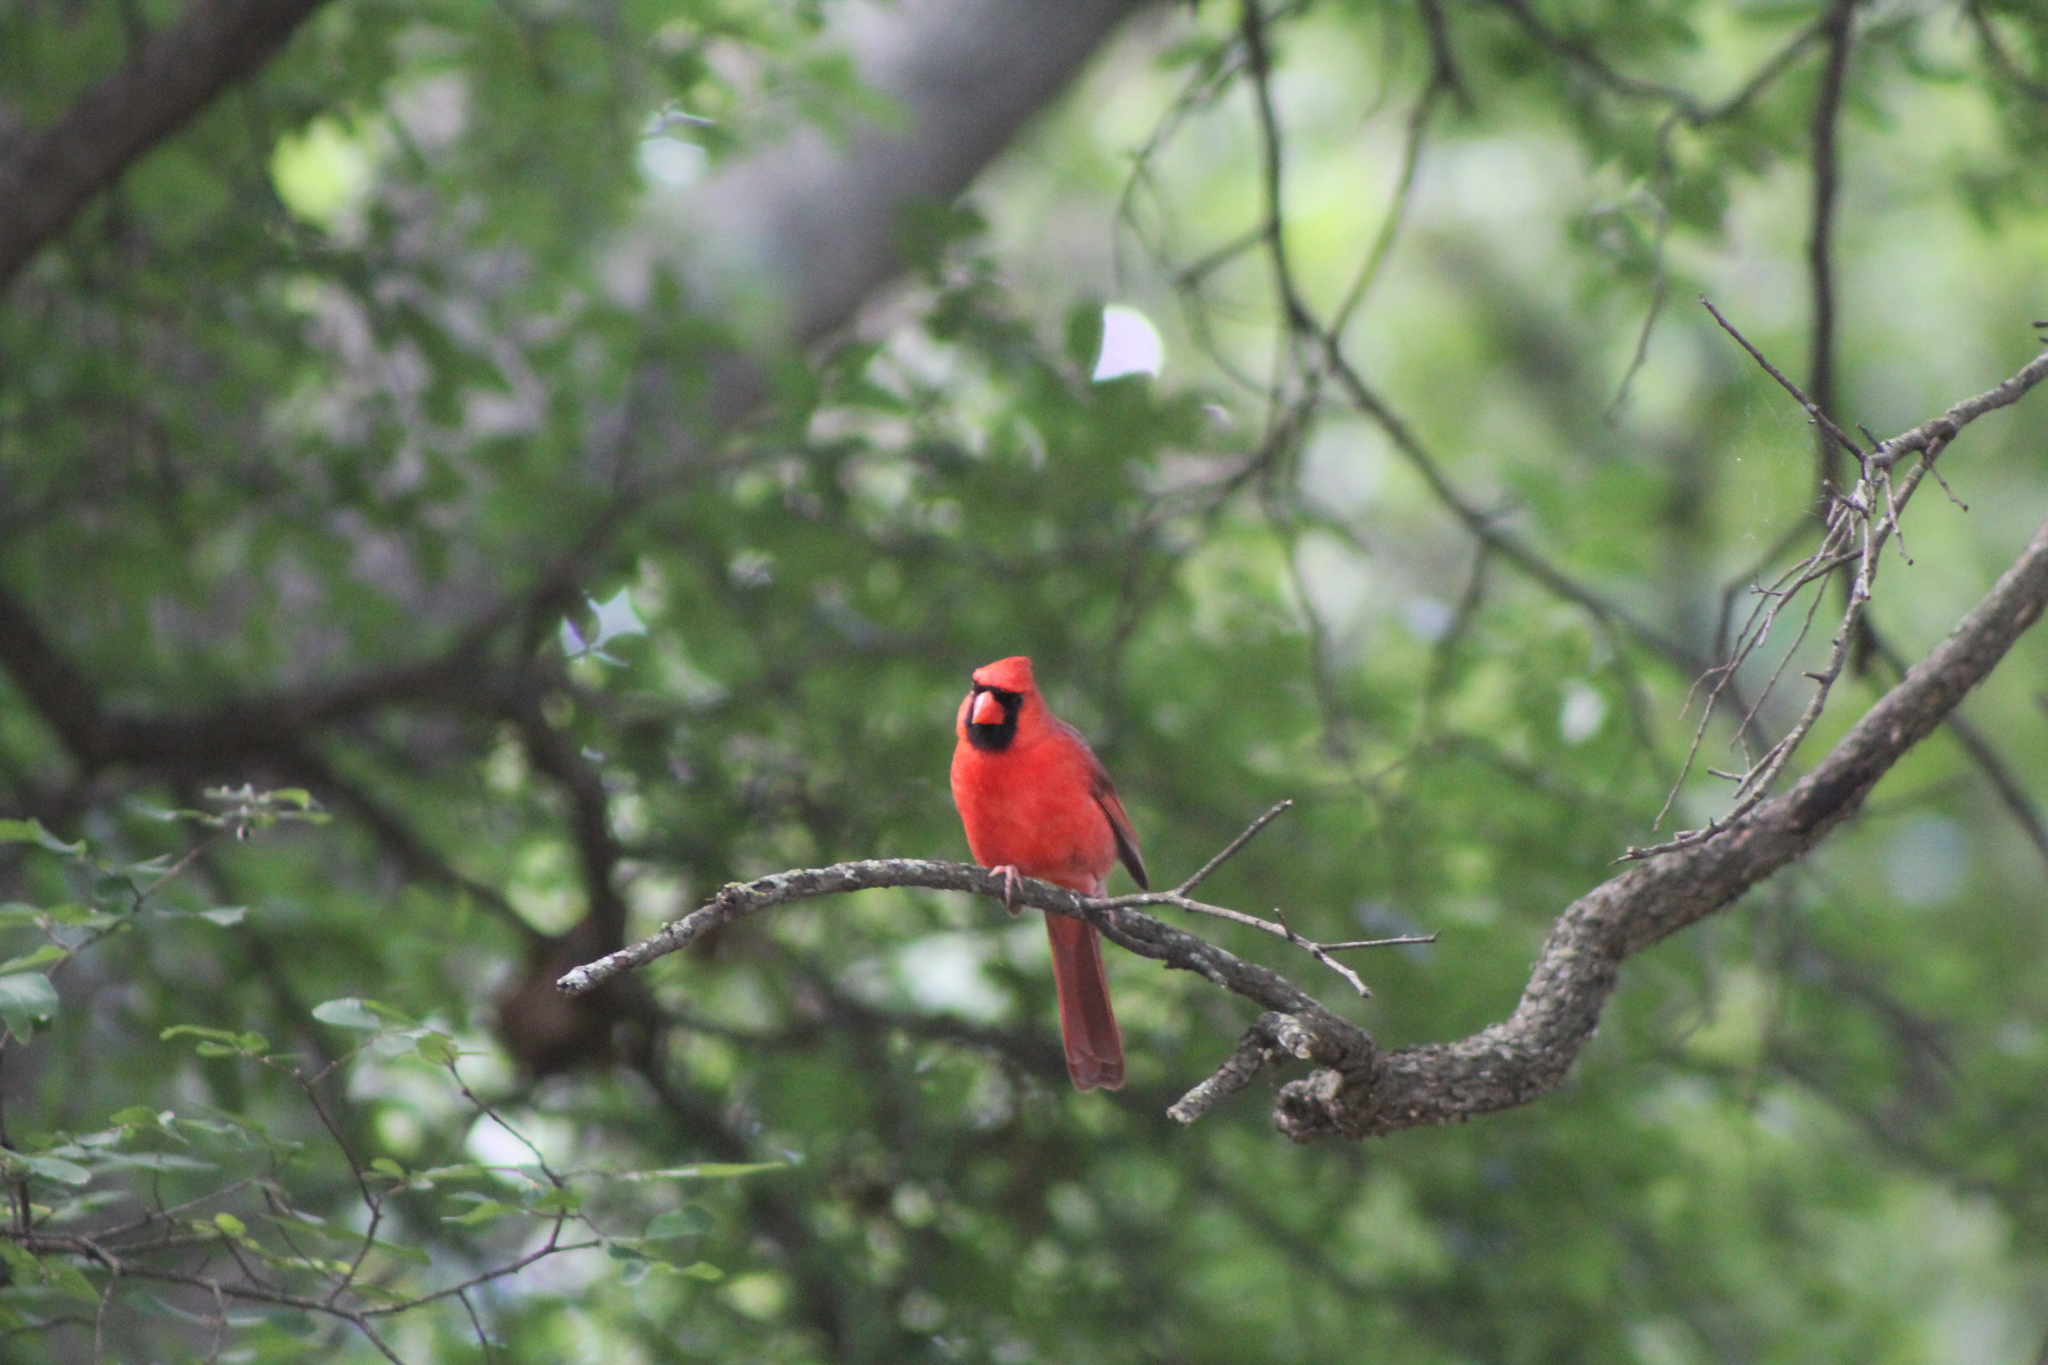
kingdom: Animalia
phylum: Chordata
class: Aves
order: Passeriformes
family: Cardinalidae
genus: Cardinalis
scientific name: Cardinalis cardinalis
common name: Northern cardinal
